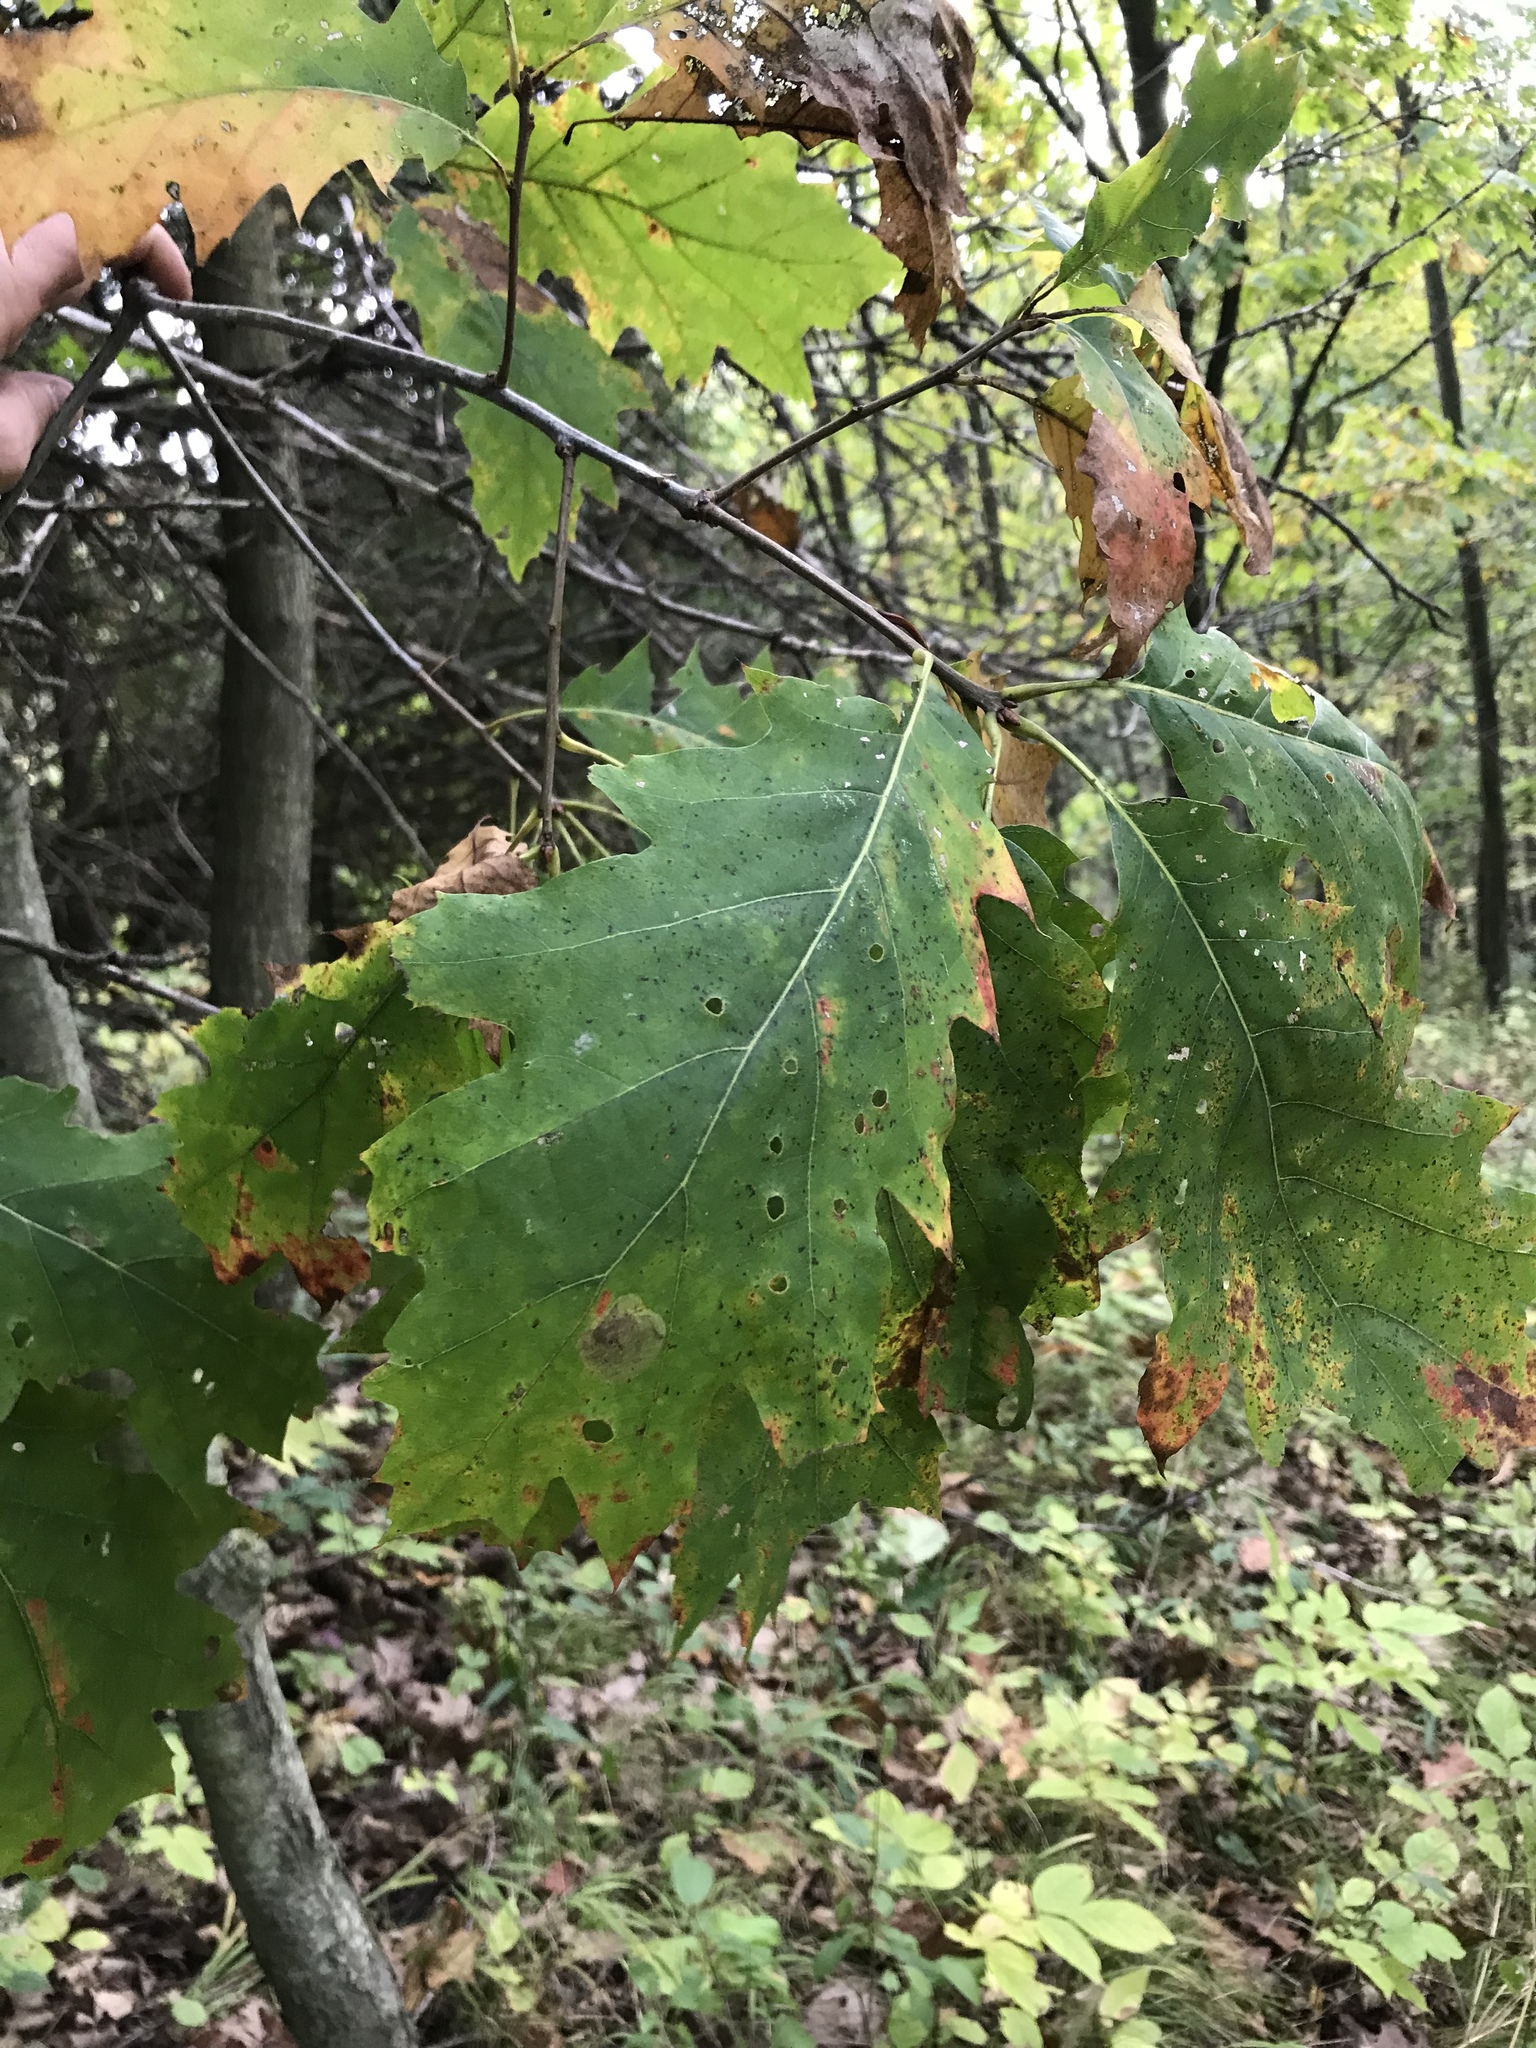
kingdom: Plantae
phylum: Tracheophyta
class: Magnoliopsida
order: Fagales
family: Fagaceae
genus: Quercus
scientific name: Quercus rubra
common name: Red oak
